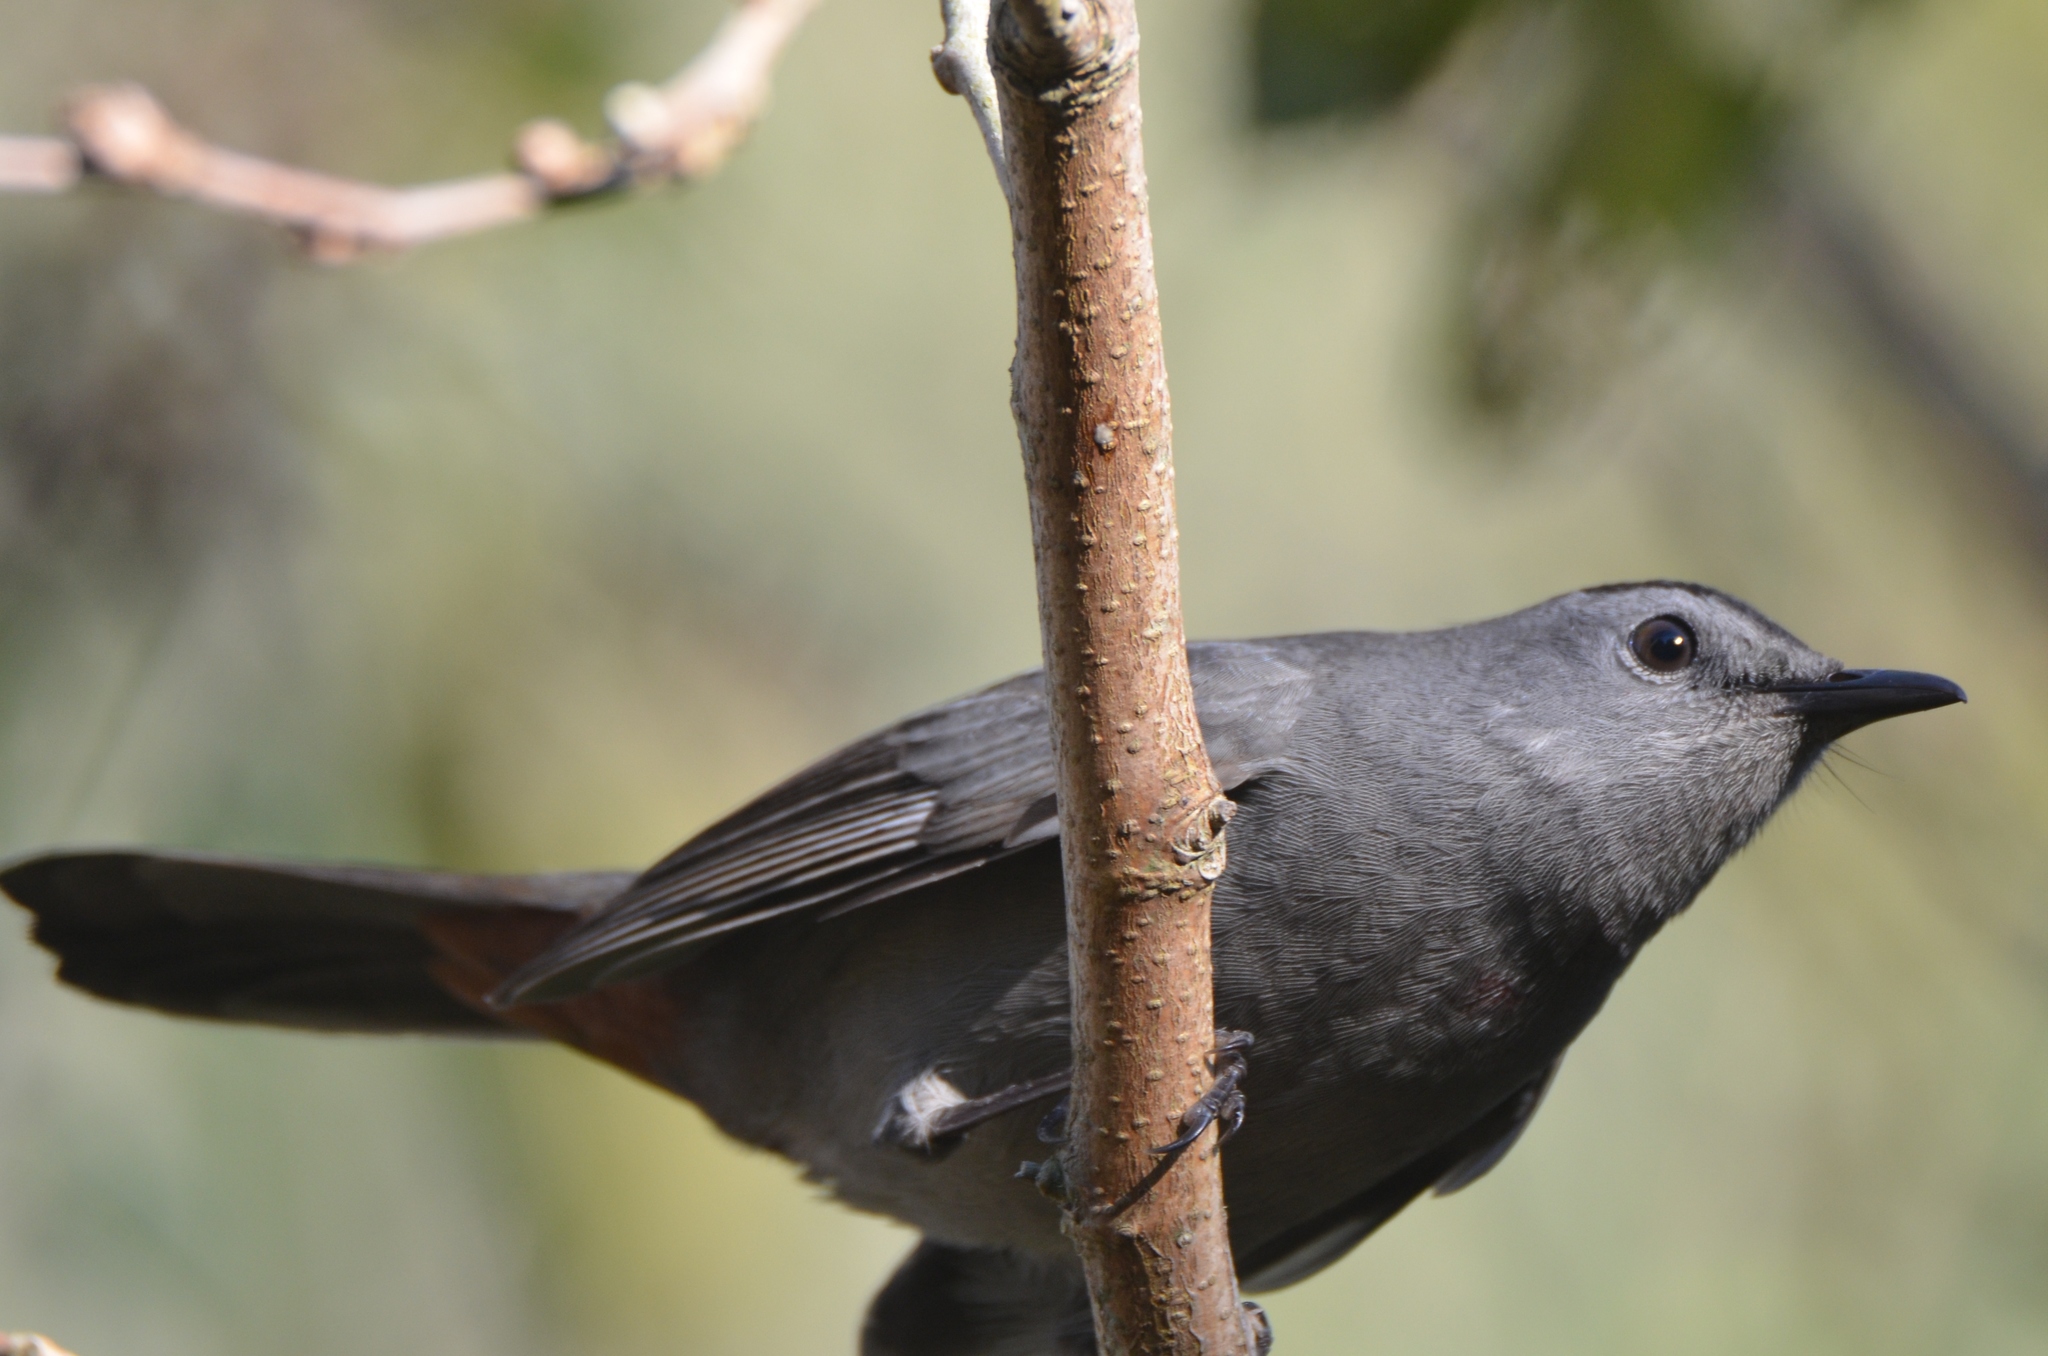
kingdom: Animalia
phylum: Chordata
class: Aves
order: Passeriformes
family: Mimidae
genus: Dumetella
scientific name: Dumetella carolinensis
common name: Gray catbird
